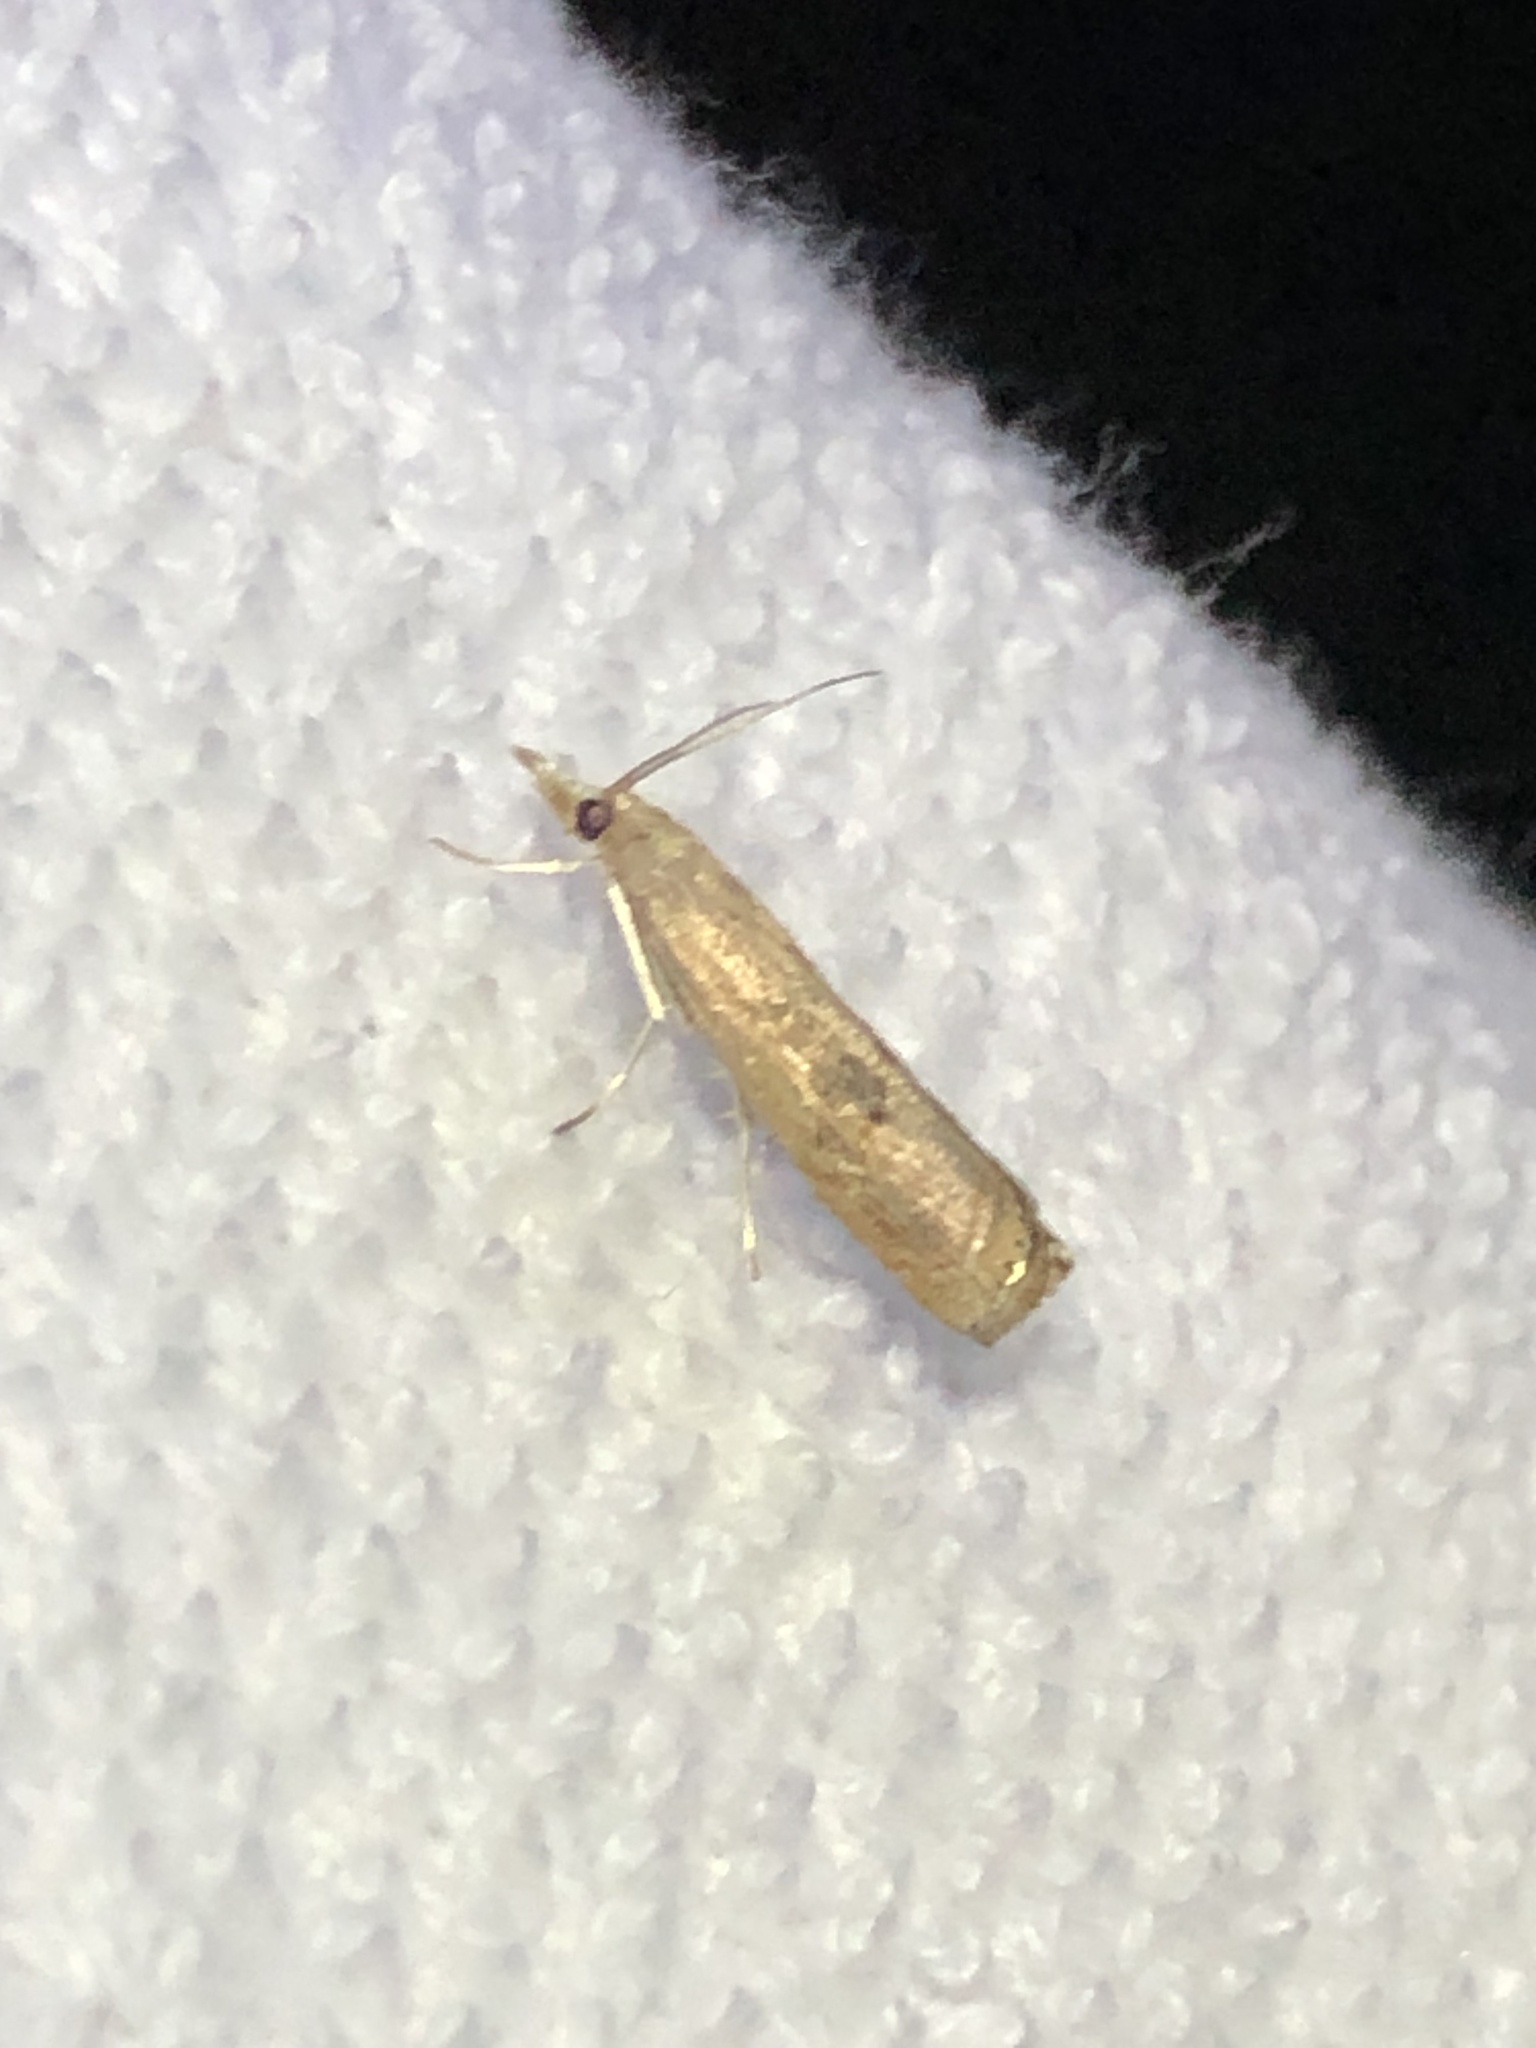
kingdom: Animalia
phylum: Arthropoda
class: Insecta
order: Lepidoptera
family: Crambidae
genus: Parapediasia
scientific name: Parapediasia teterellus
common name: Bluegrass webworm moth
